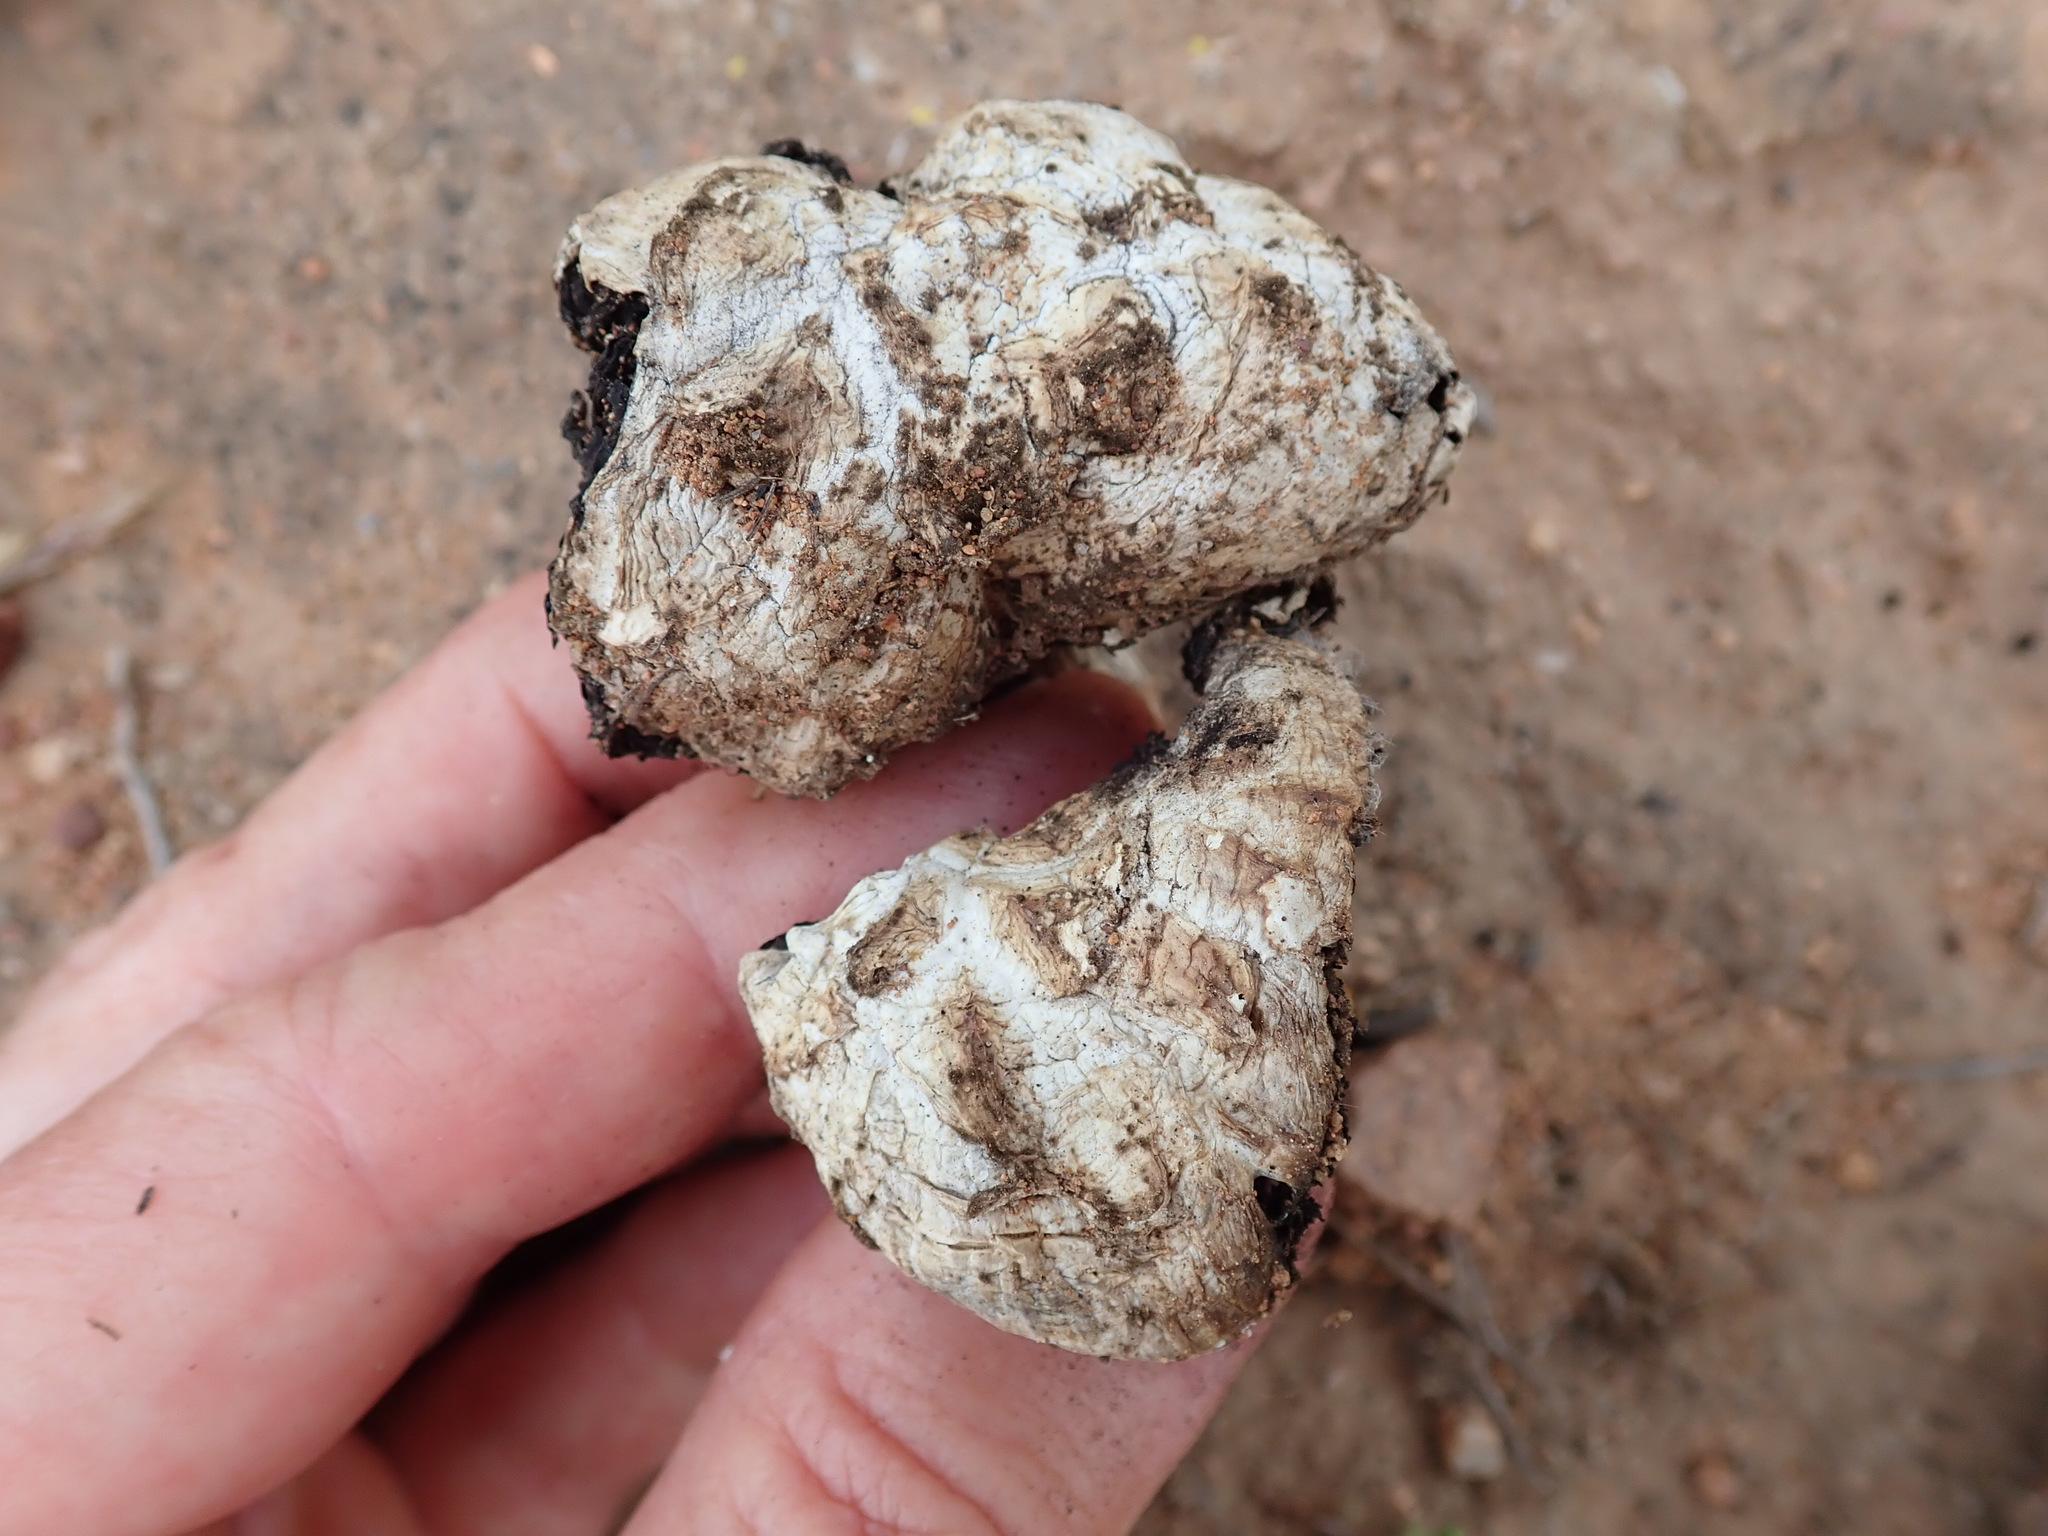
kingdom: Fungi
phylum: Basidiomycota
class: Agaricomycetes
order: Agaricales
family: Agaricaceae
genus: Agaricus
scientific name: Agaricus deserticola
